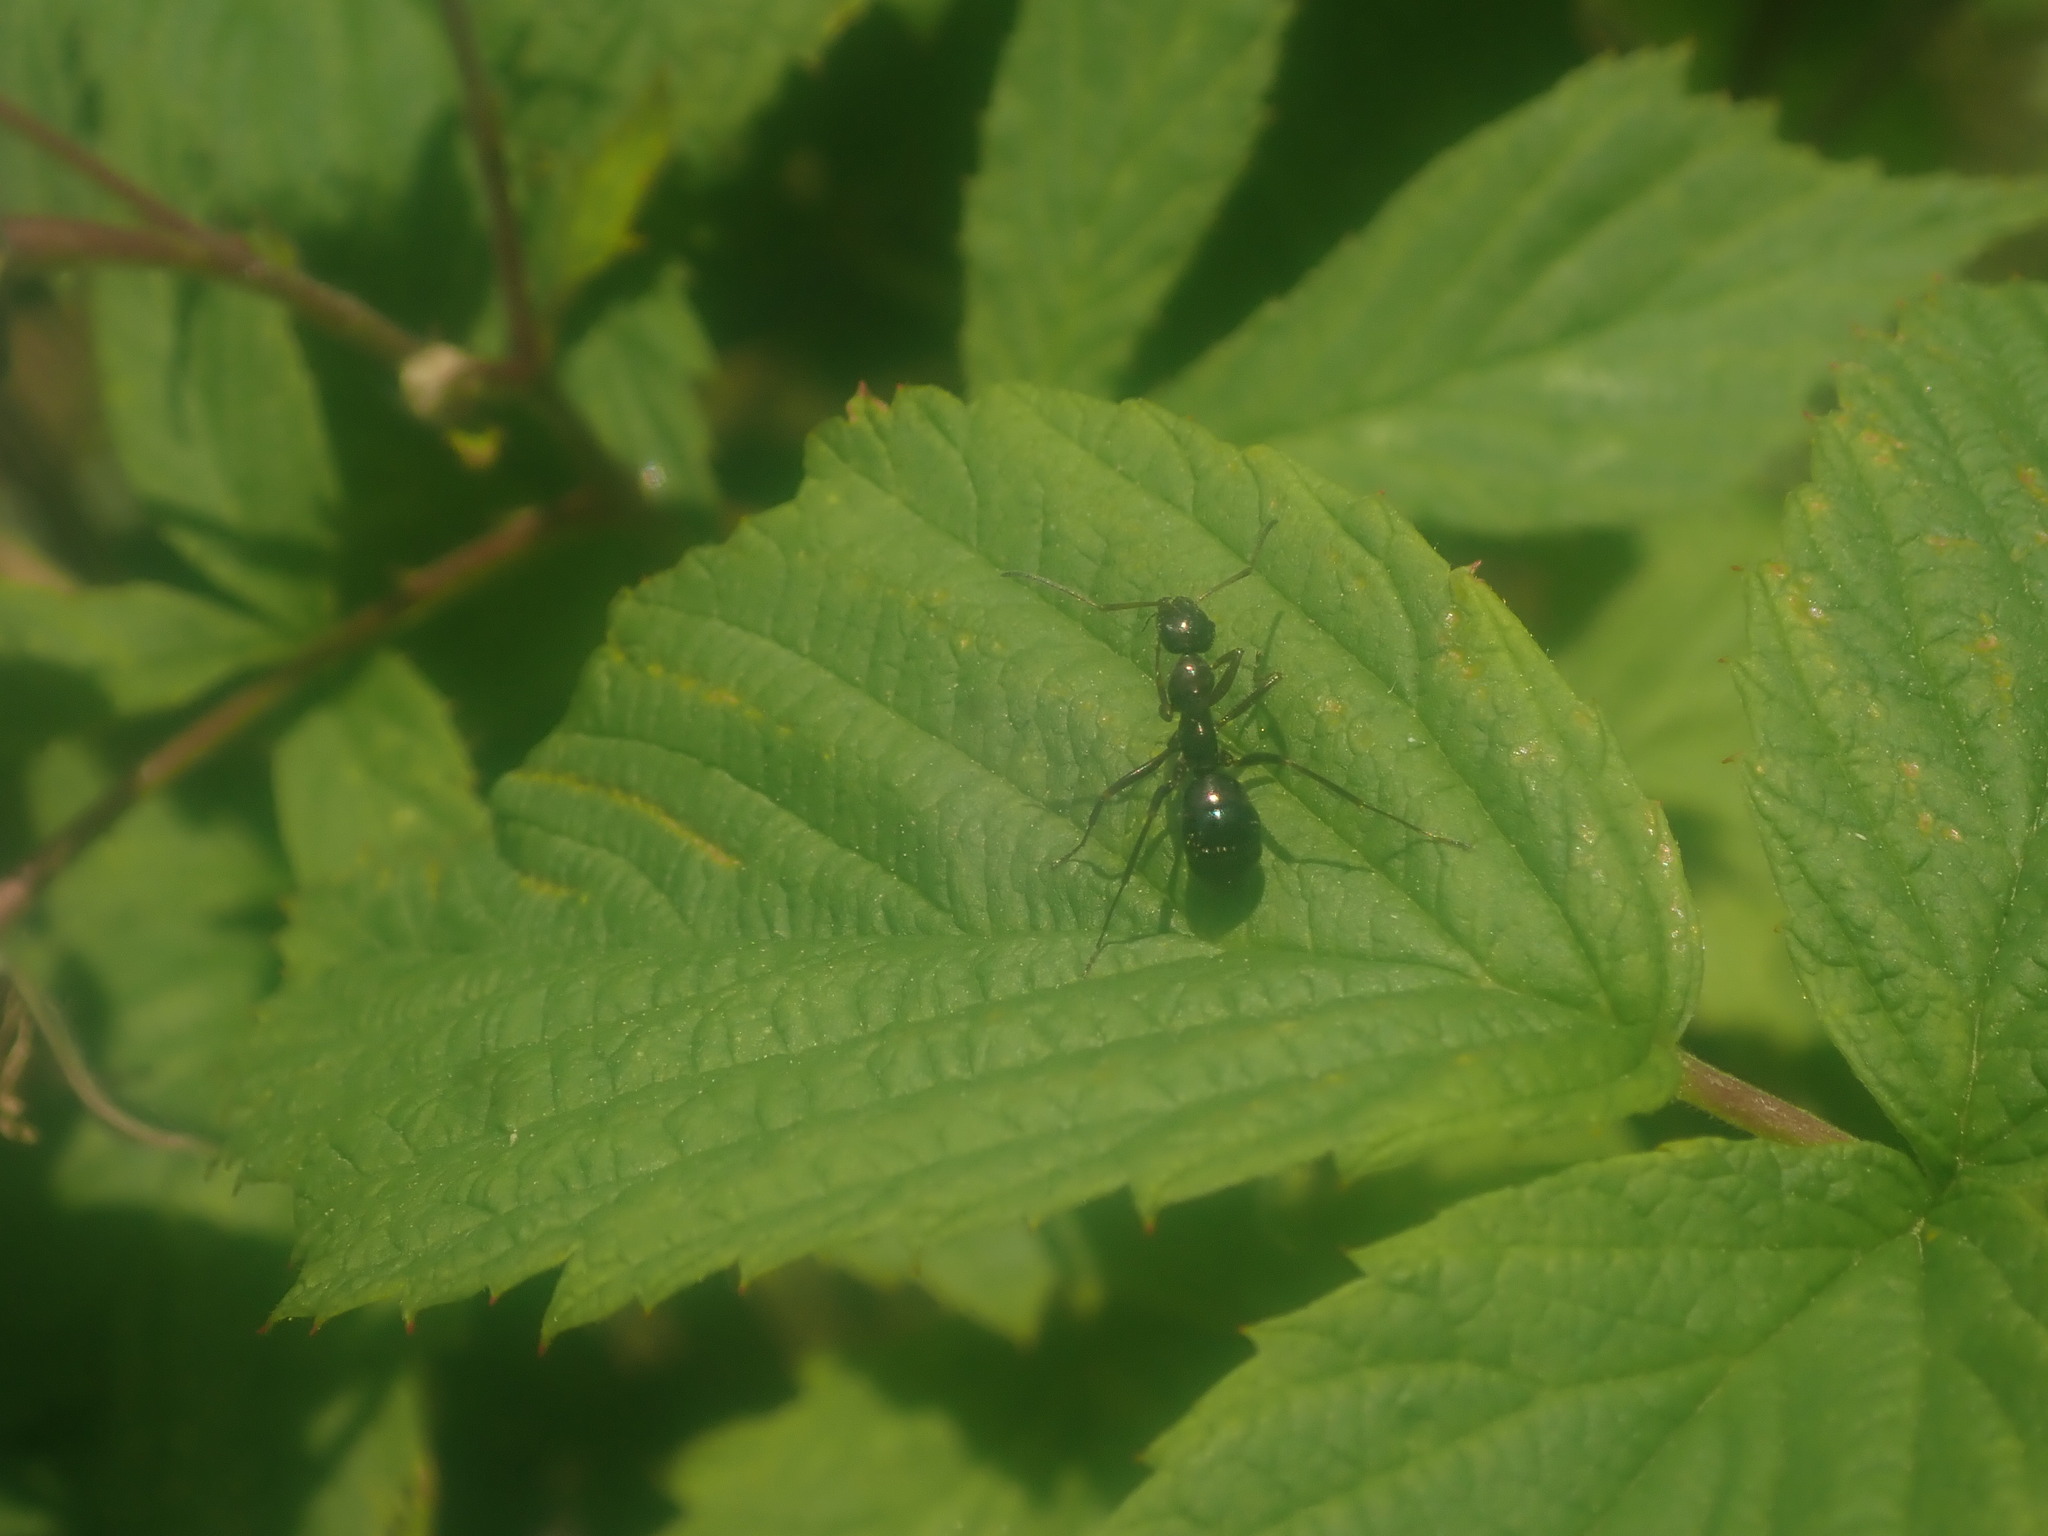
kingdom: Animalia
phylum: Arthropoda
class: Insecta
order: Hymenoptera
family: Formicidae
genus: Camponotus
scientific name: Camponotus pennsylvanicus
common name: Black carpenter ant
